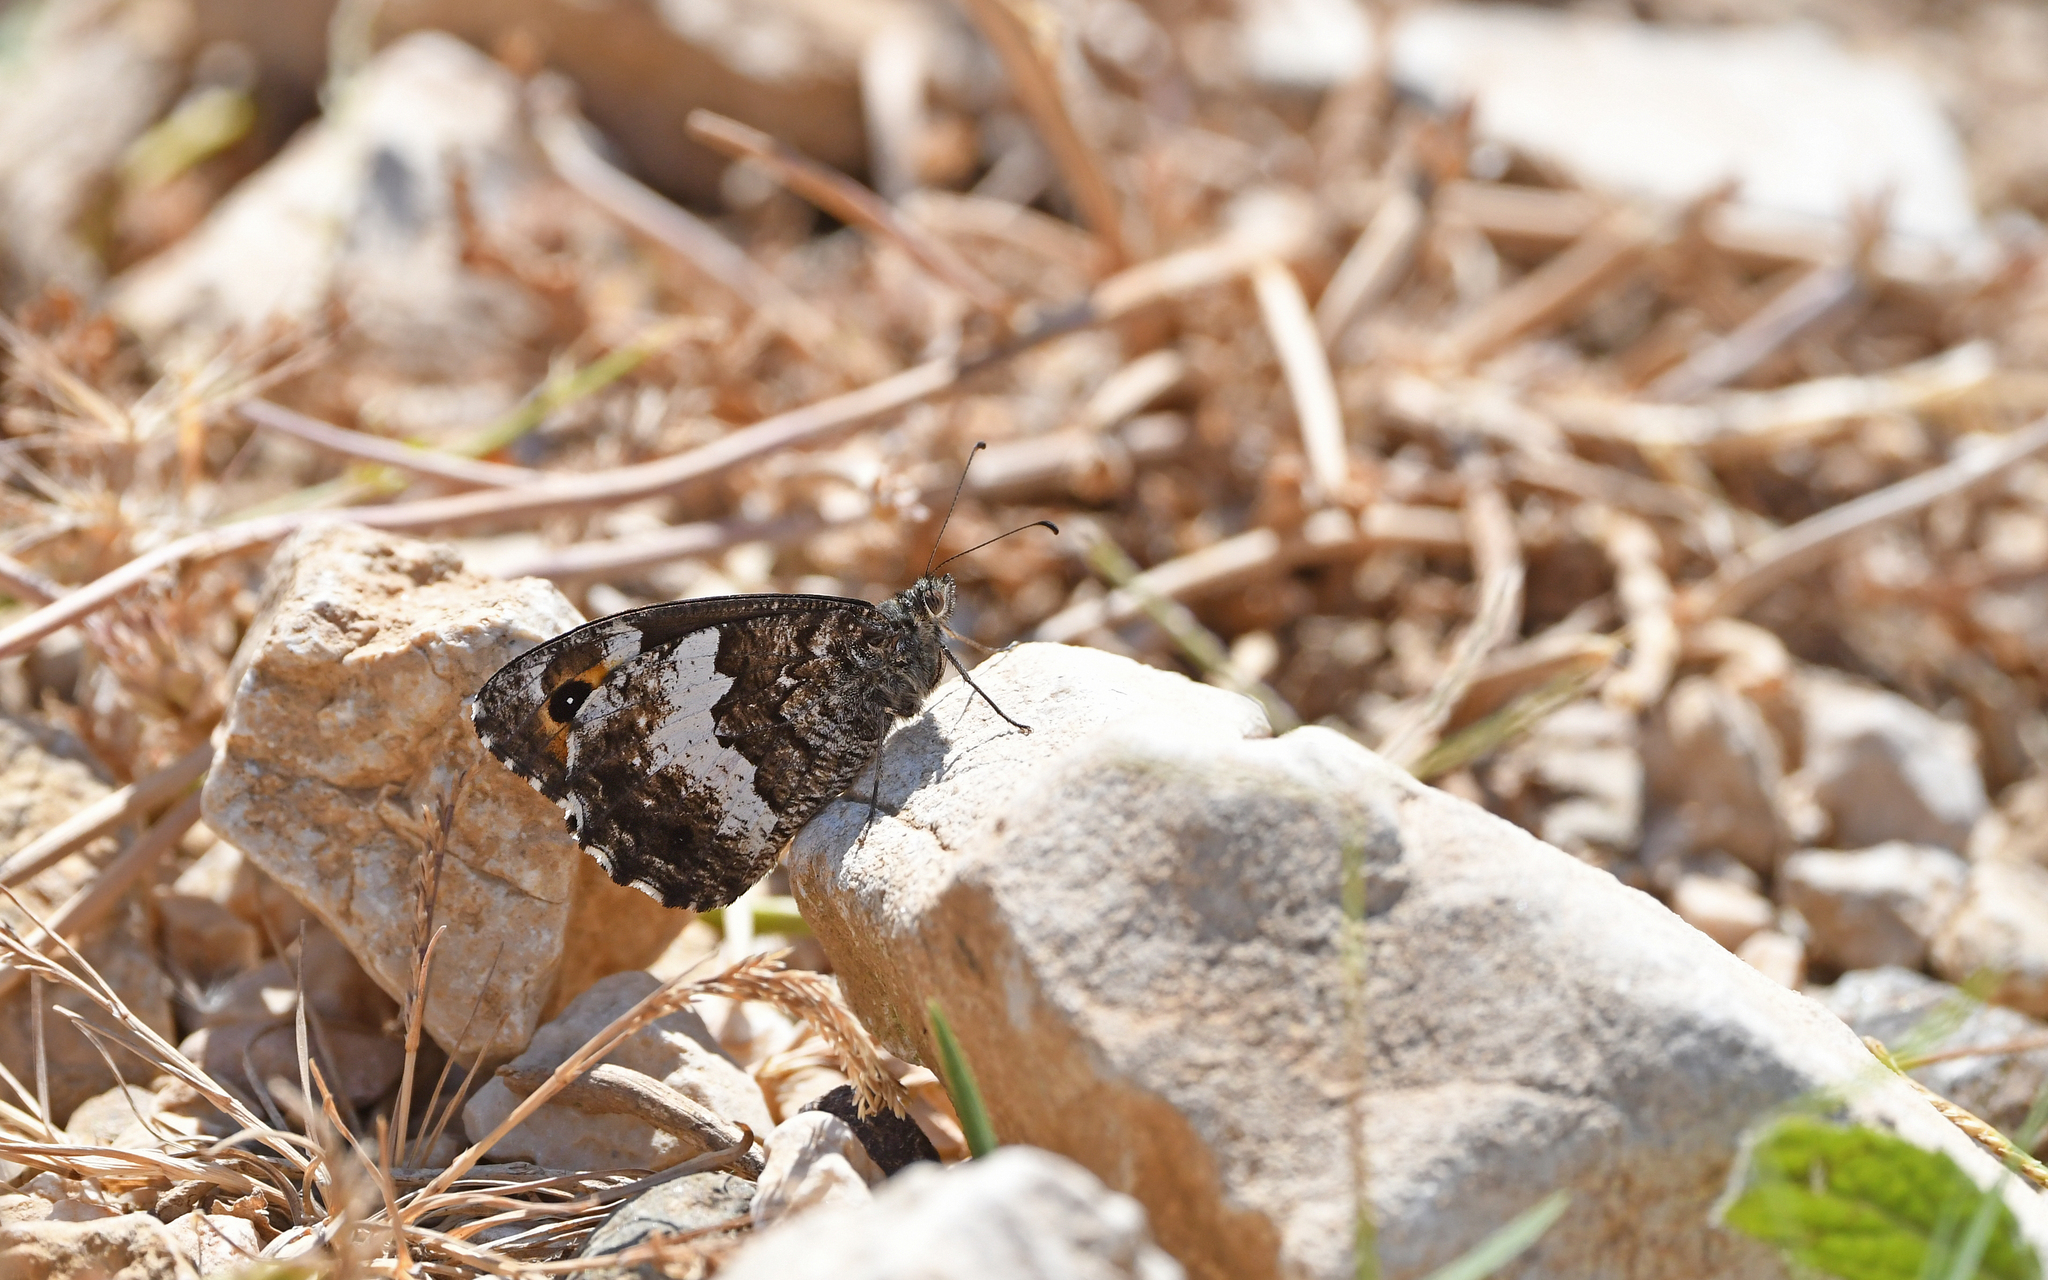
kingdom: Animalia
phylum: Arthropoda
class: Insecta
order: Lepidoptera
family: Nymphalidae
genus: Hipparchia
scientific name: Hipparchia neomiris
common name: Corsican grayling
